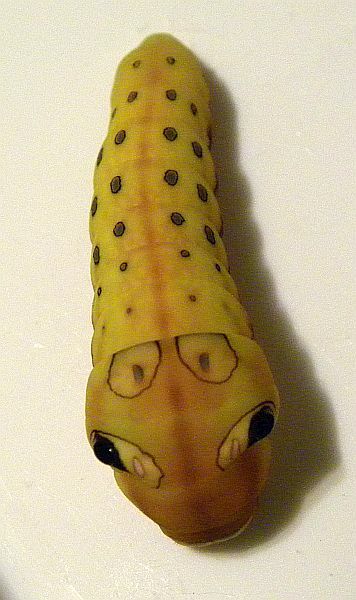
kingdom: Animalia
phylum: Arthropoda
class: Insecta
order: Lepidoptera
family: Papilionidae
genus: Papilio
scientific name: Papilio troilus
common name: Spicebush swallowtail
